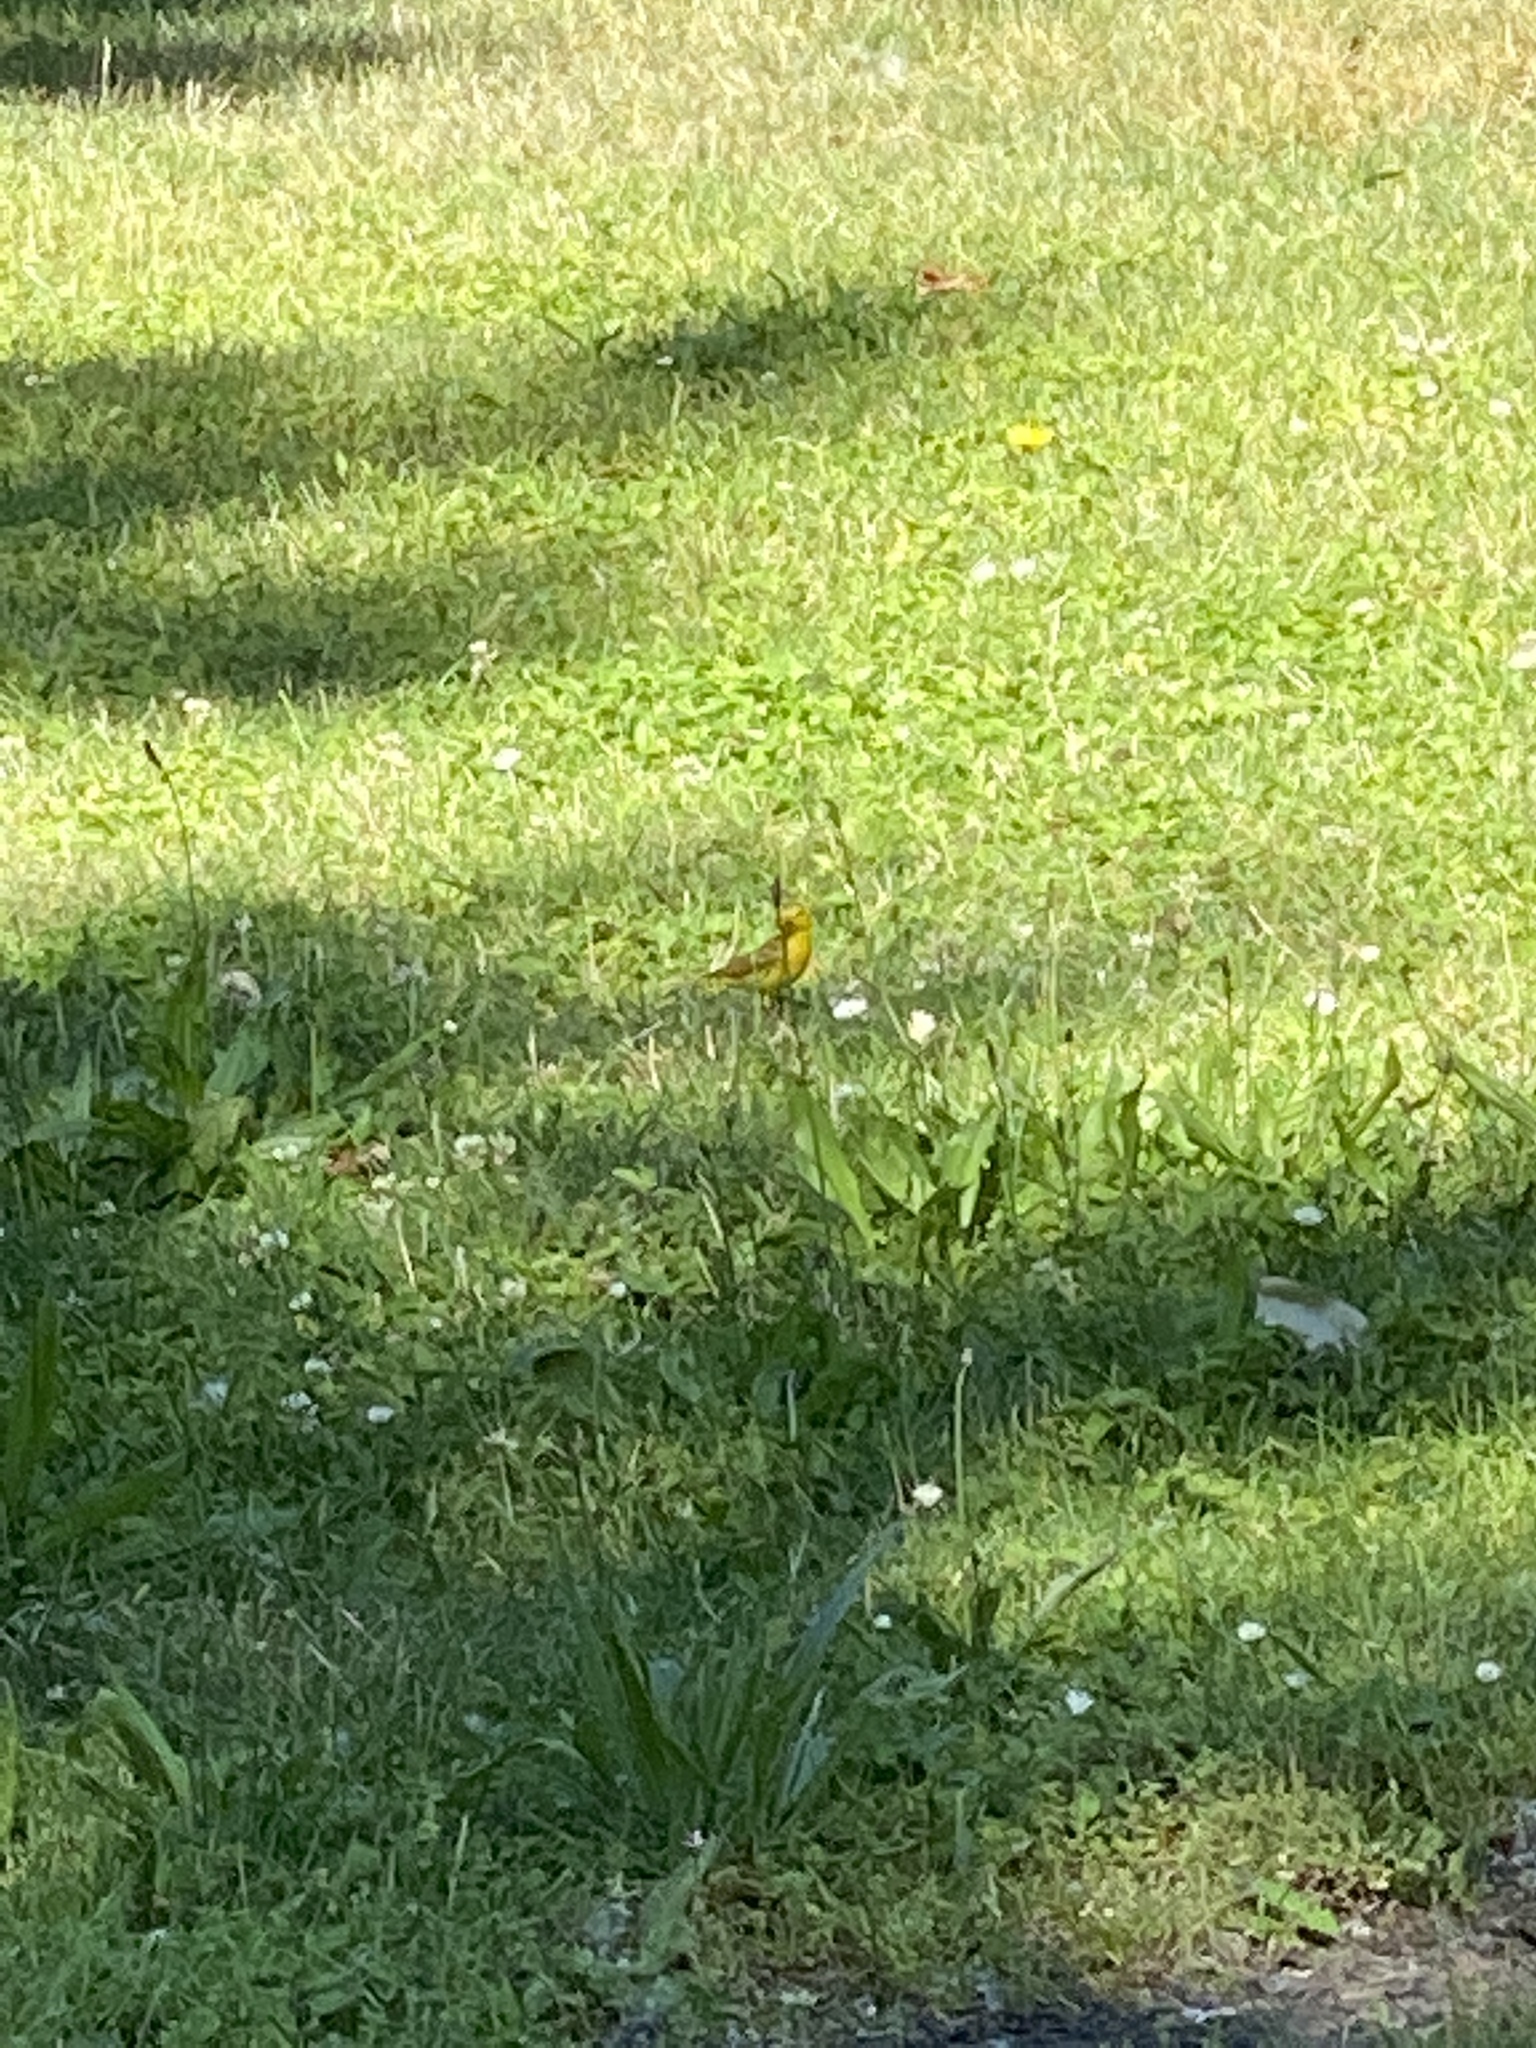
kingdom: Animalia
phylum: Chordata
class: Aves
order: Passeriformes
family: Parulidae
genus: Setophaga
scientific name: Setophaga petechia
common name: Yellow warbler
